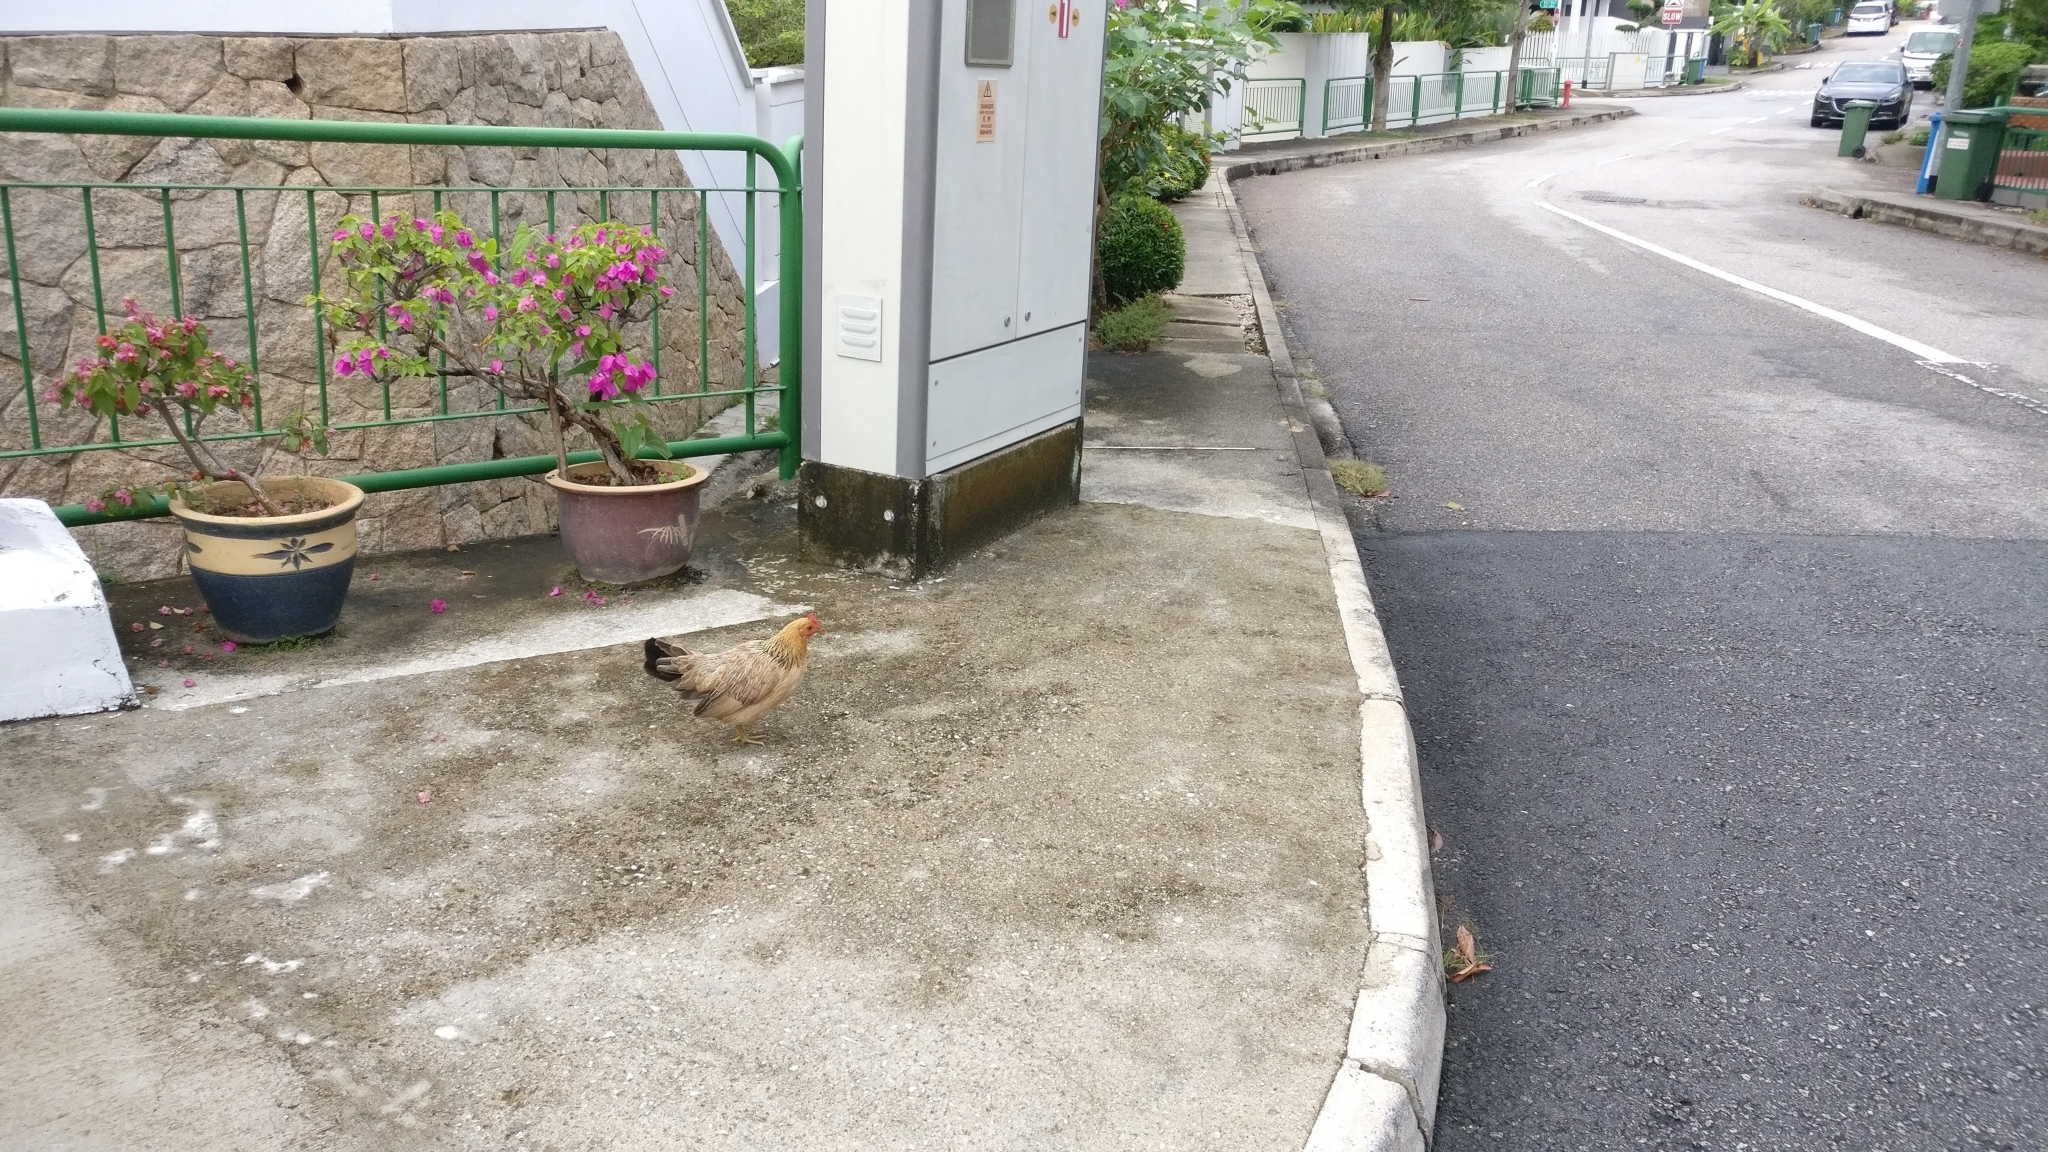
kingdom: Animalia
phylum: Chordata
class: Aves
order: Galliformes
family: Phasianidae
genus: Gallus
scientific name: Gallus gallus
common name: Red junglefowl
